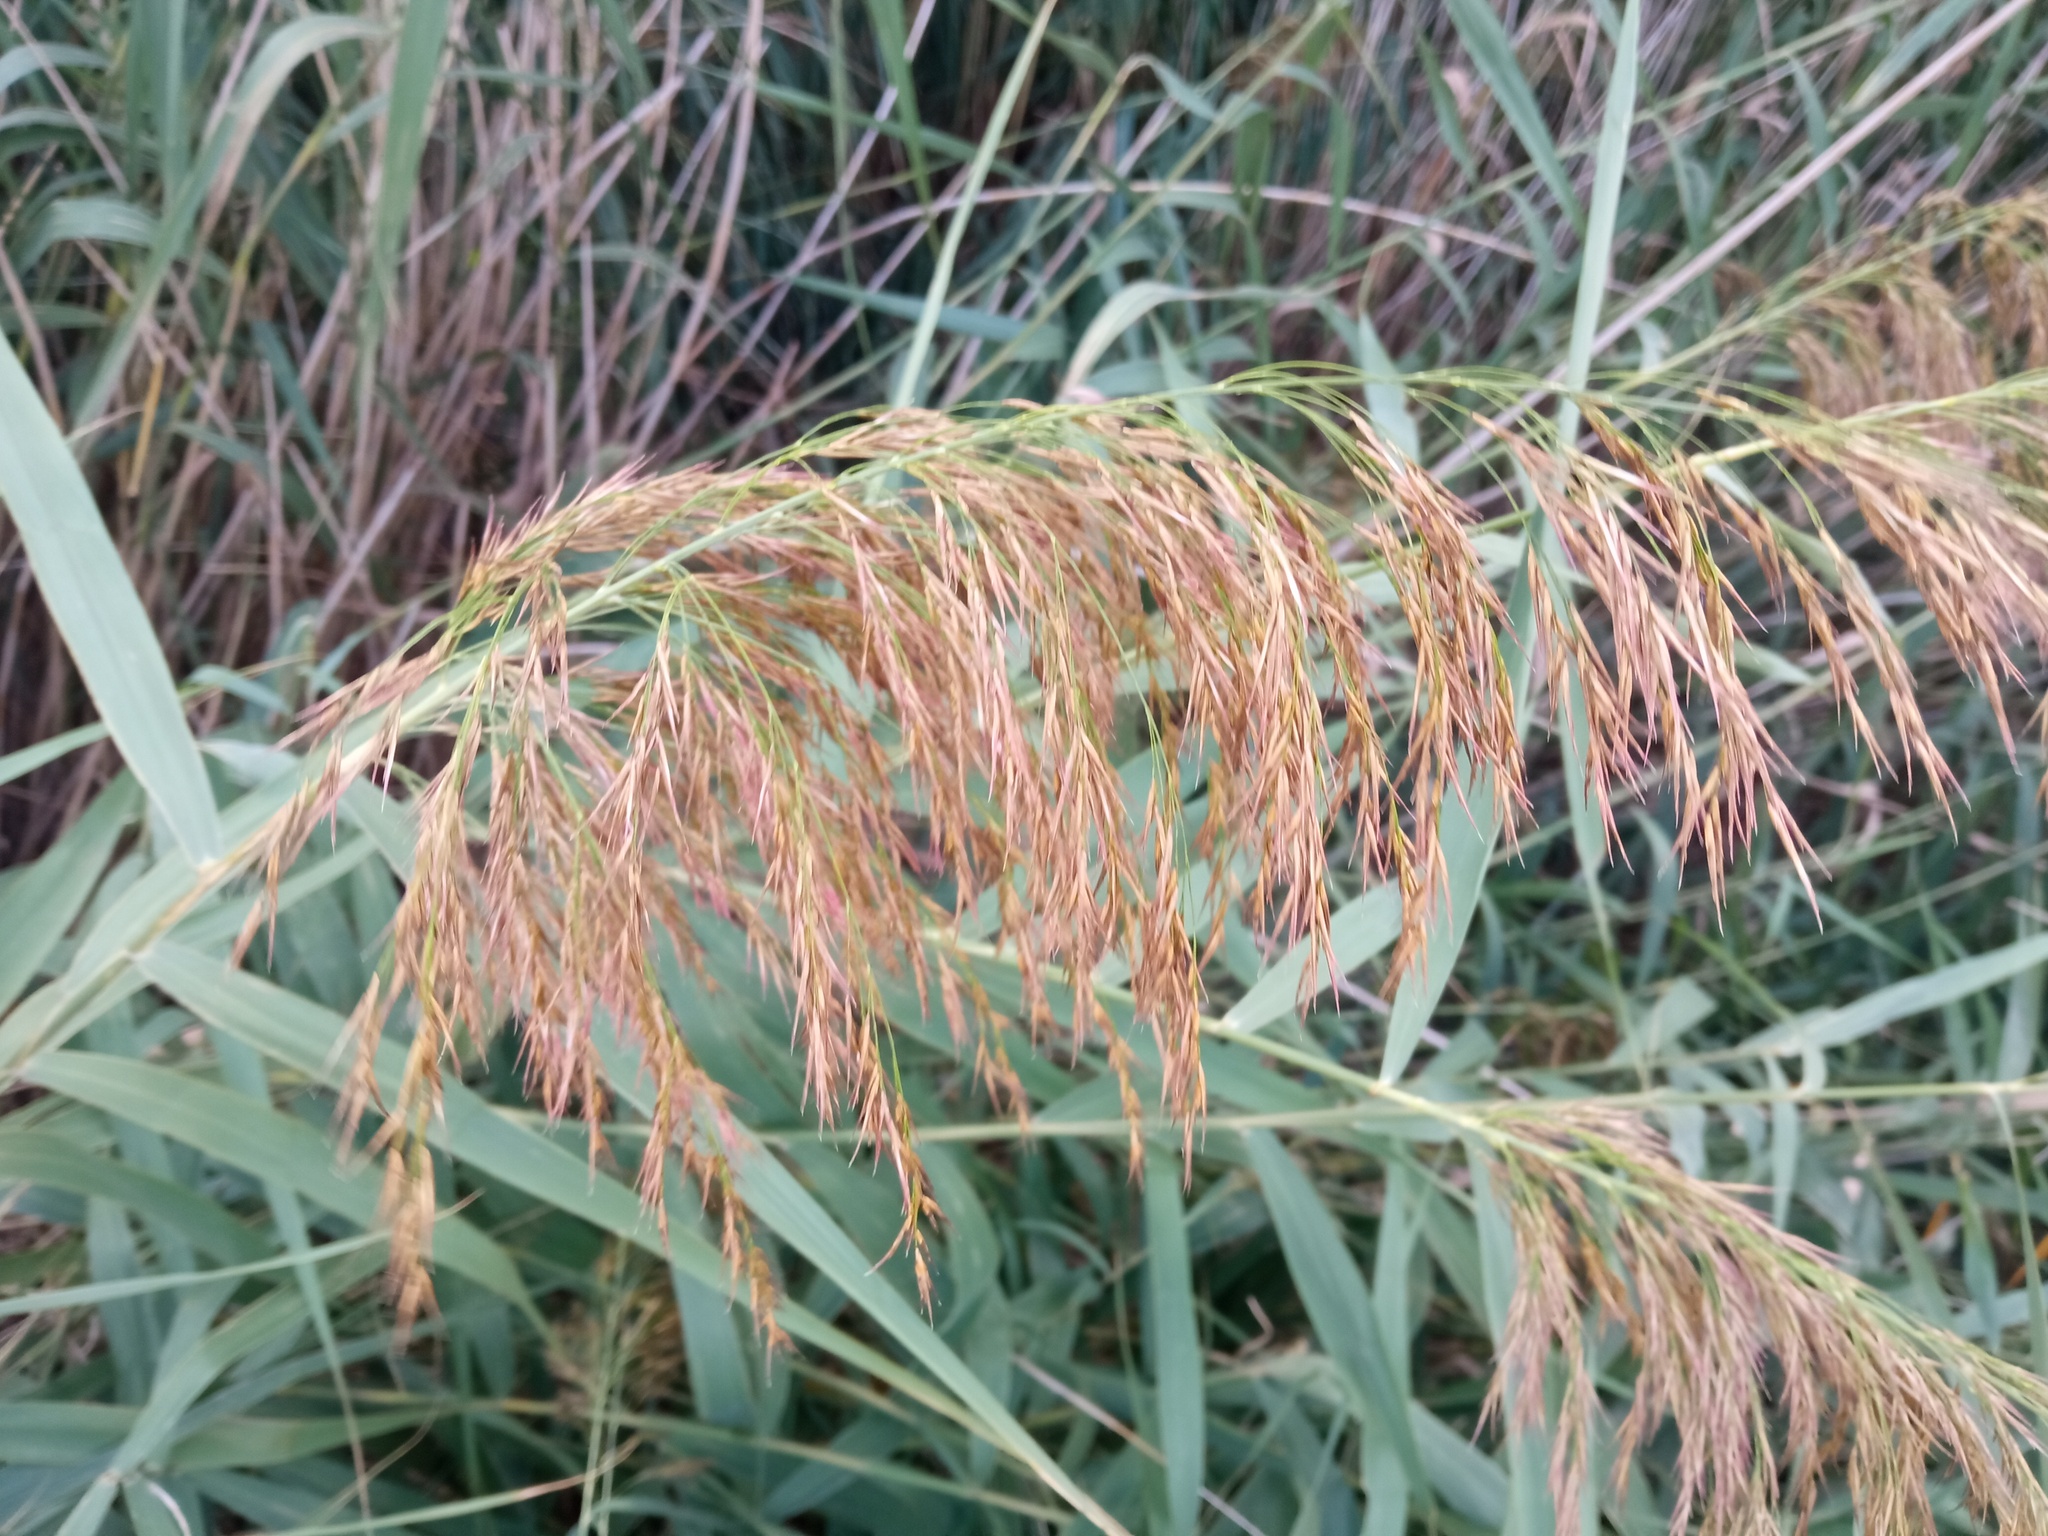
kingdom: Plantae
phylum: Tracheophyta
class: Liliopsida
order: Poales
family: Poaceae
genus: Phragmites
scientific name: Phragmites australis
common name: Common reed
